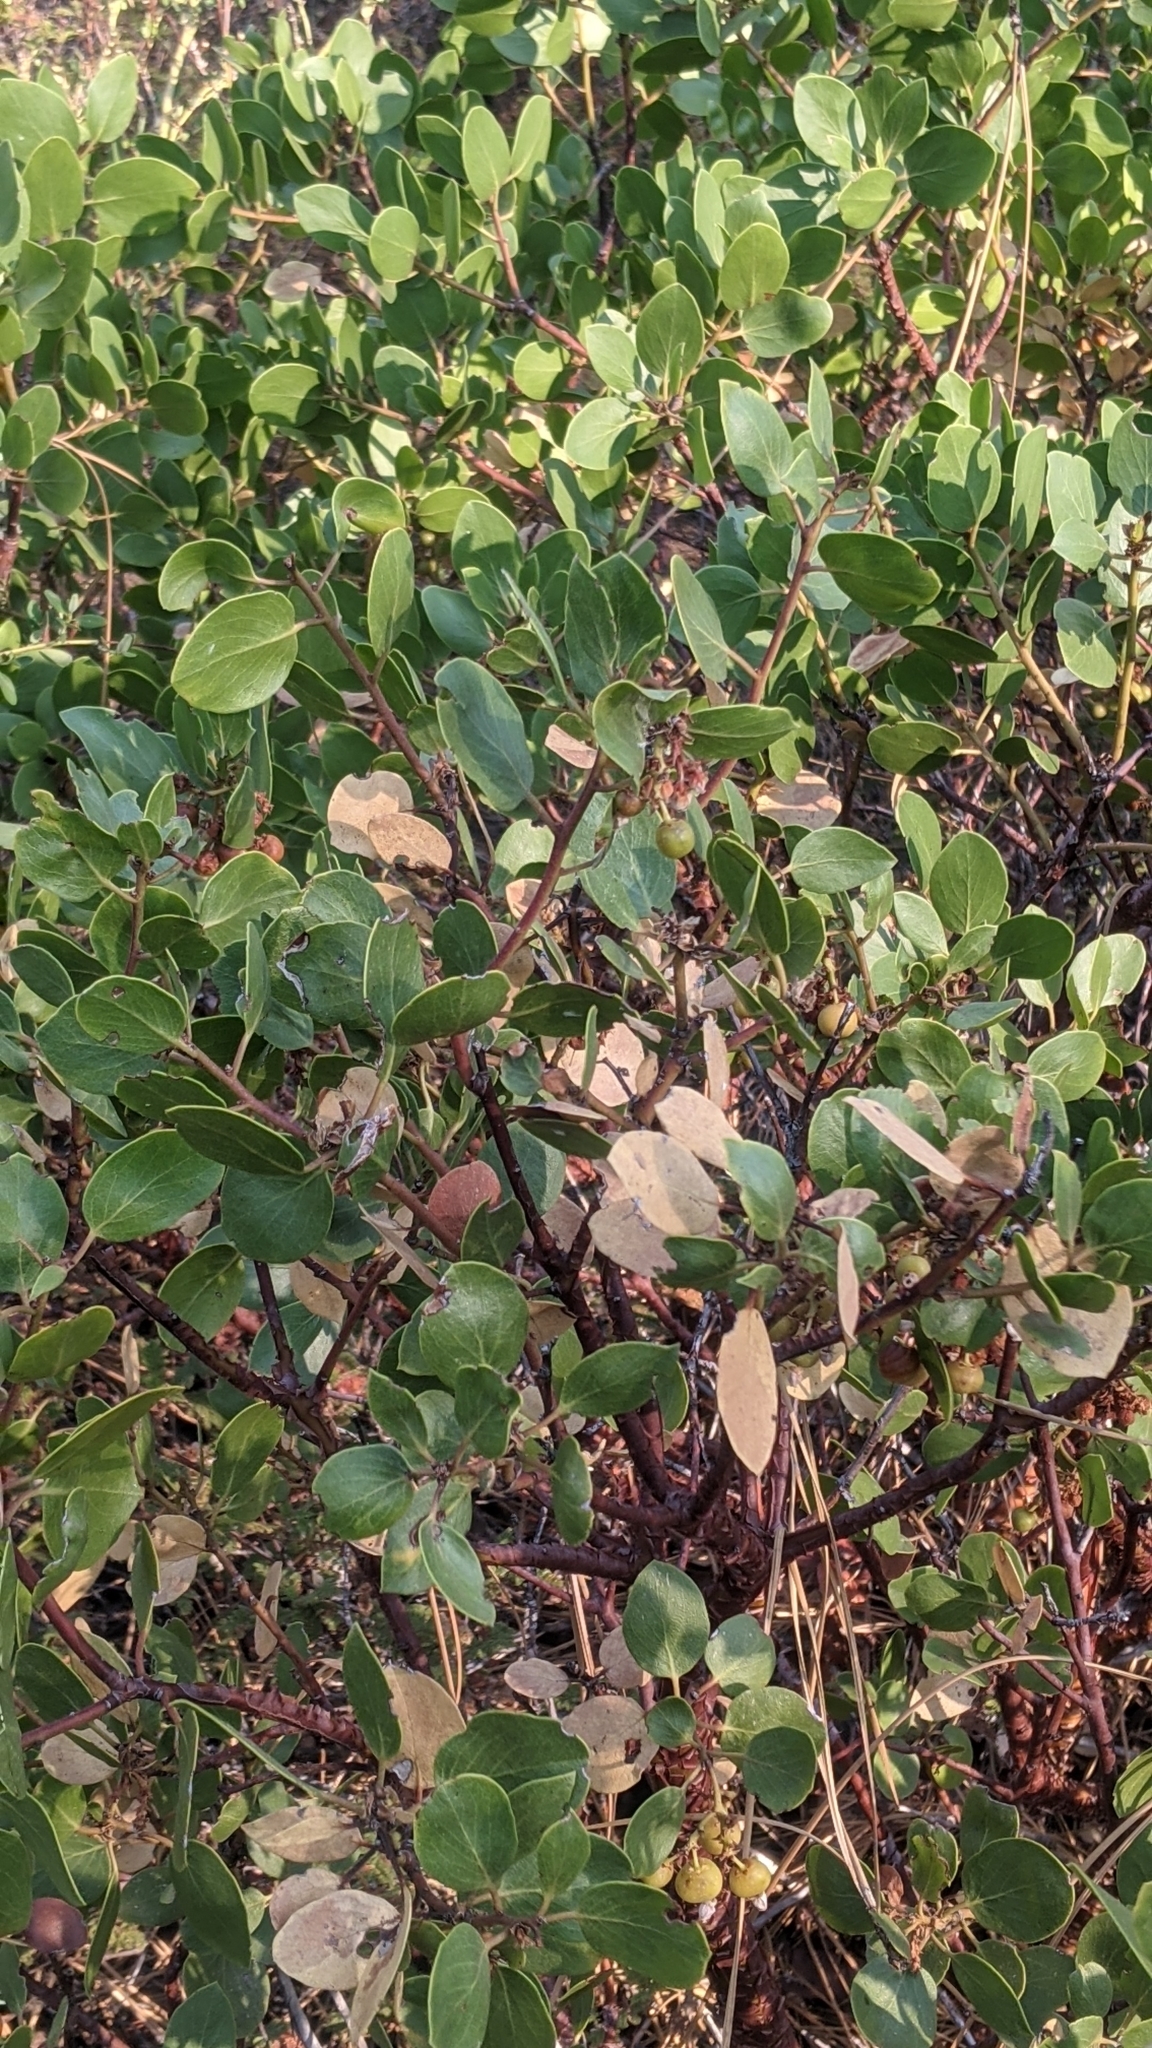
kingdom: Plantae
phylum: Tracheophyta
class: Magnoliopsida
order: Ericales
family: Ericaceae
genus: Arctostaphylos
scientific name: Arctostaphylos patula
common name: Green-leaf manzanita
